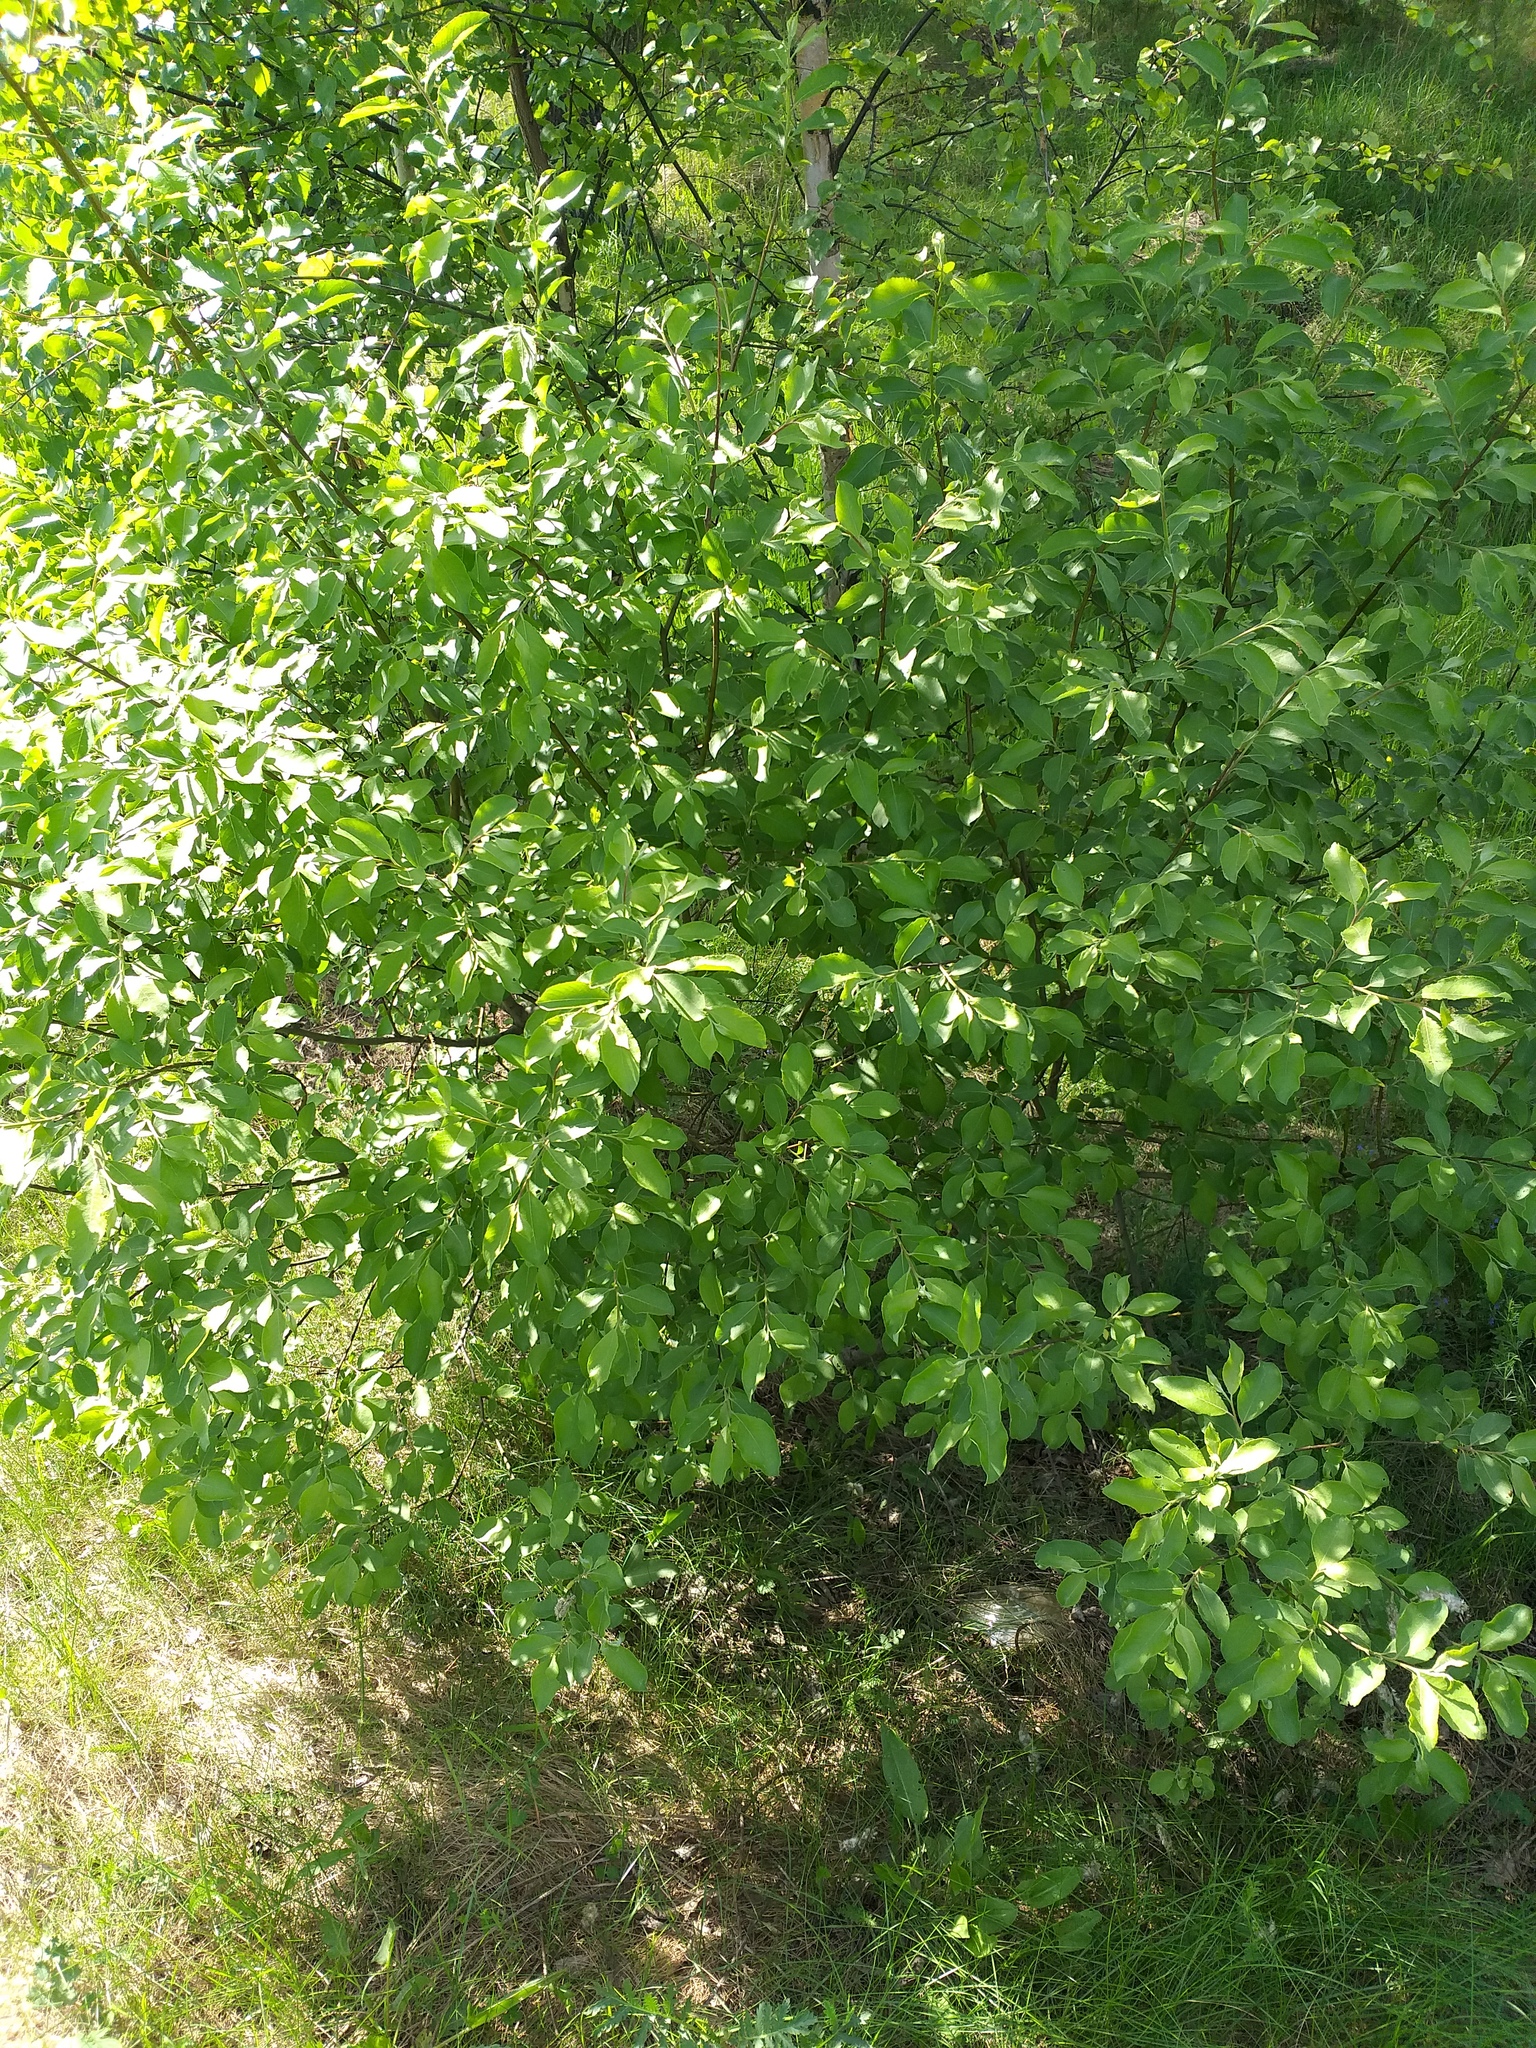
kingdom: Plantae
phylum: Tracheophyta
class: Magnoliopsida
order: Malpighiales
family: Salicaceae
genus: Salix
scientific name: Salix caprea
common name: Goat willow
